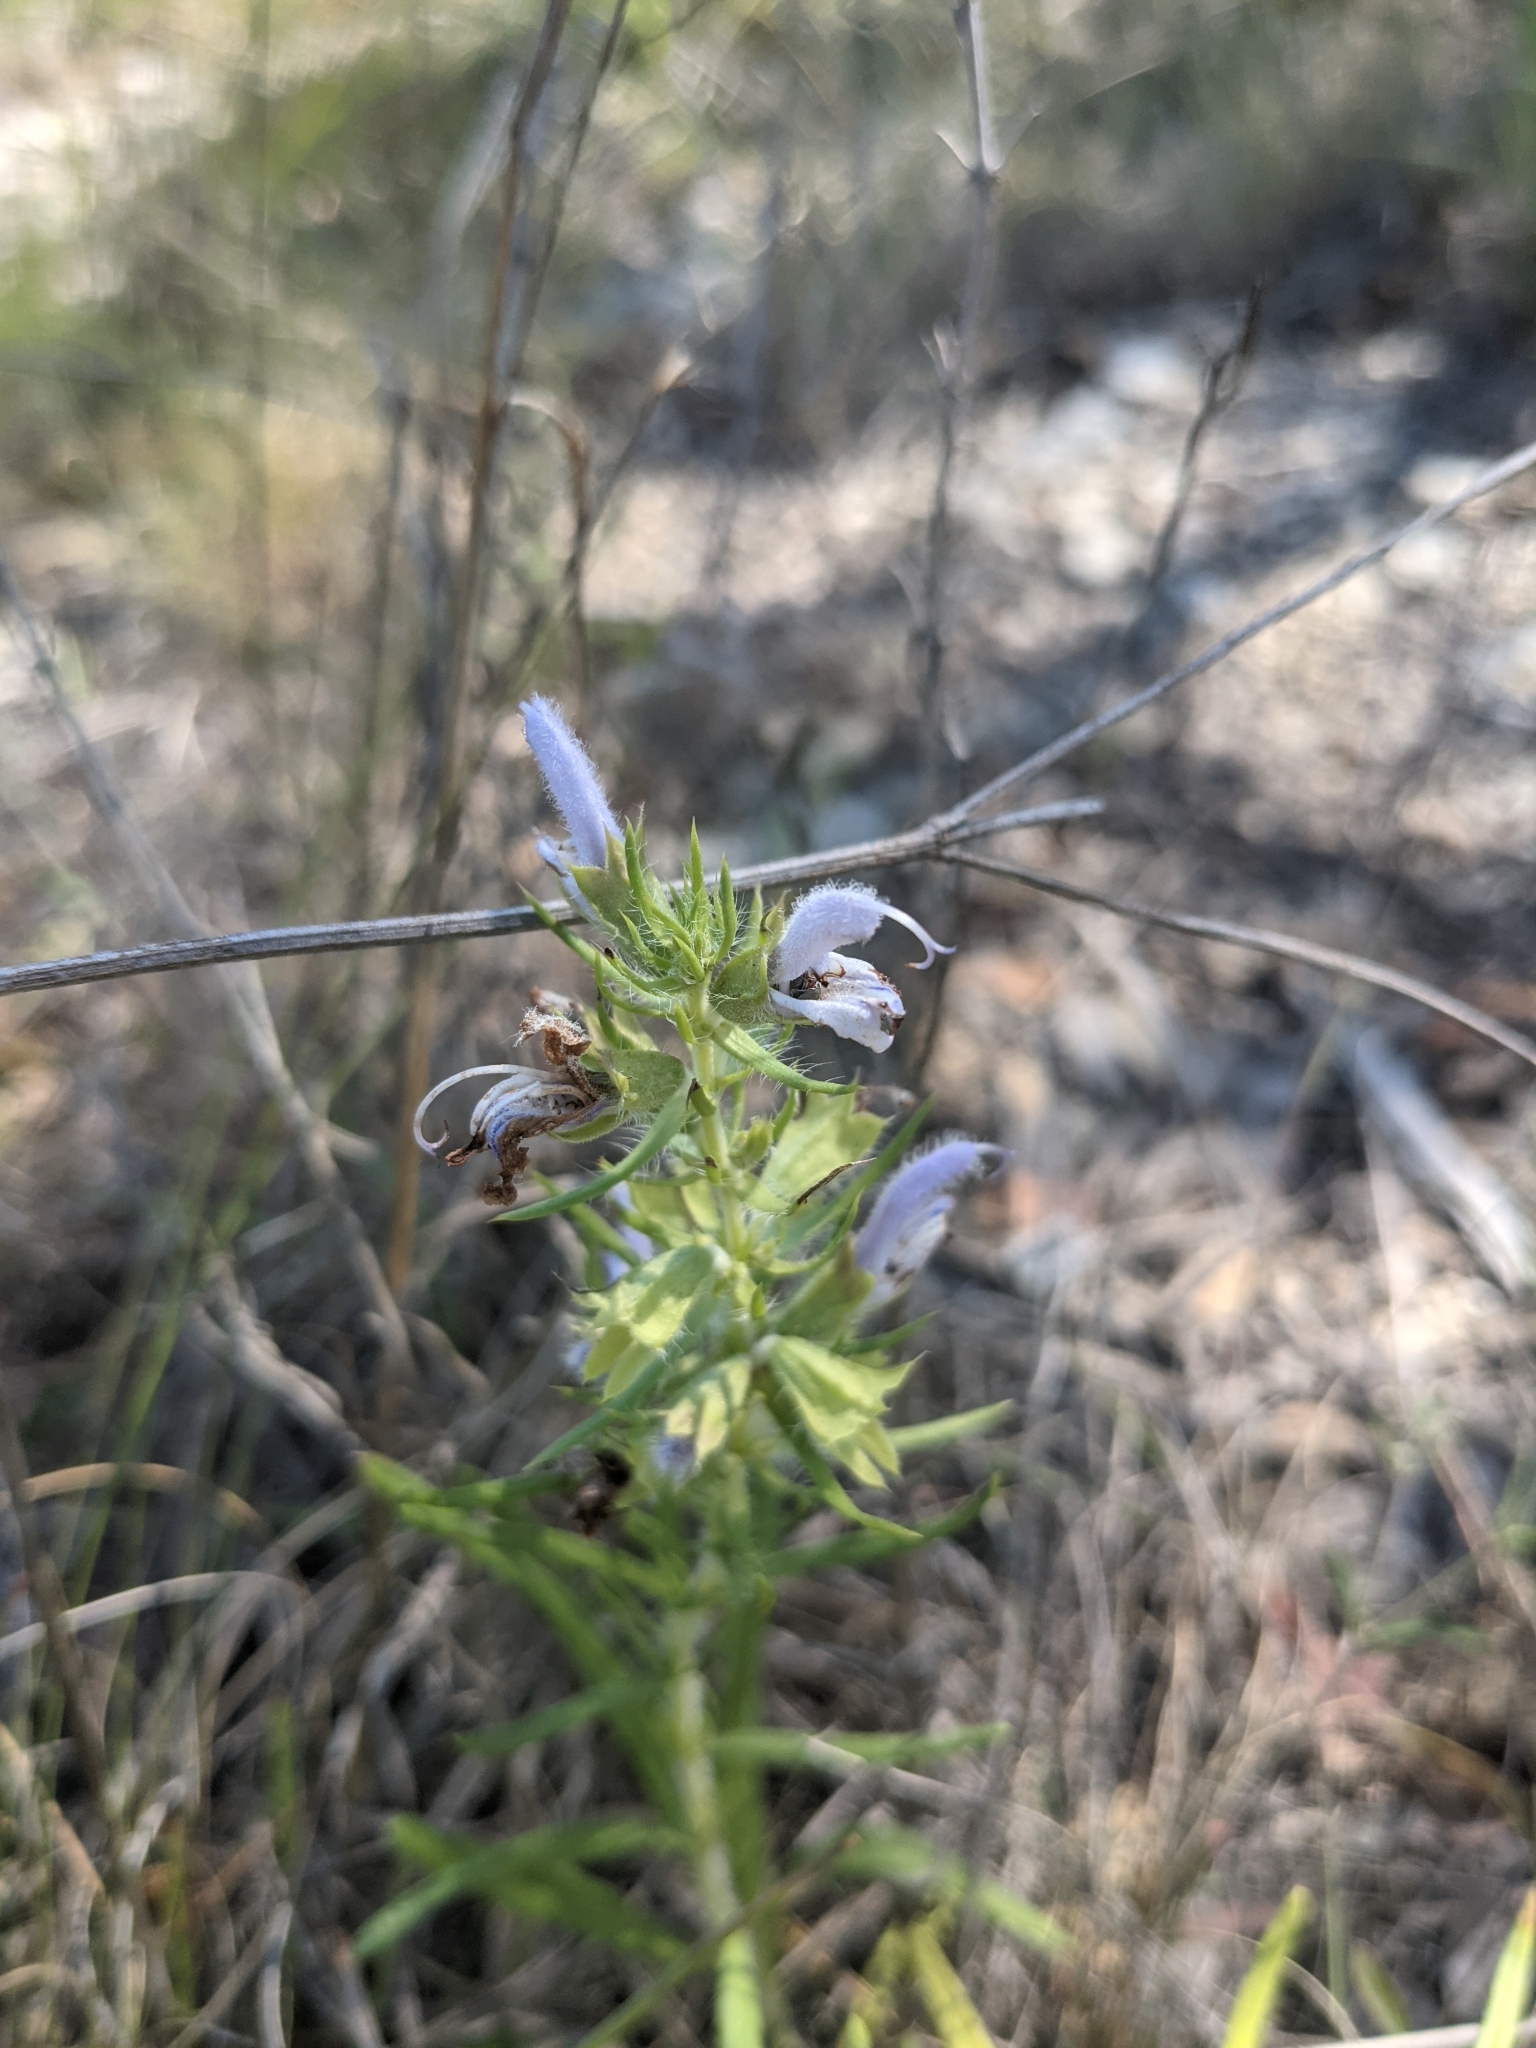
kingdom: Plantae
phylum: Tracheophyta
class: Magnoliopsida
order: Lamiales
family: Lamiaceae
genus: Salvia
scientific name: Salvia engelmannii
